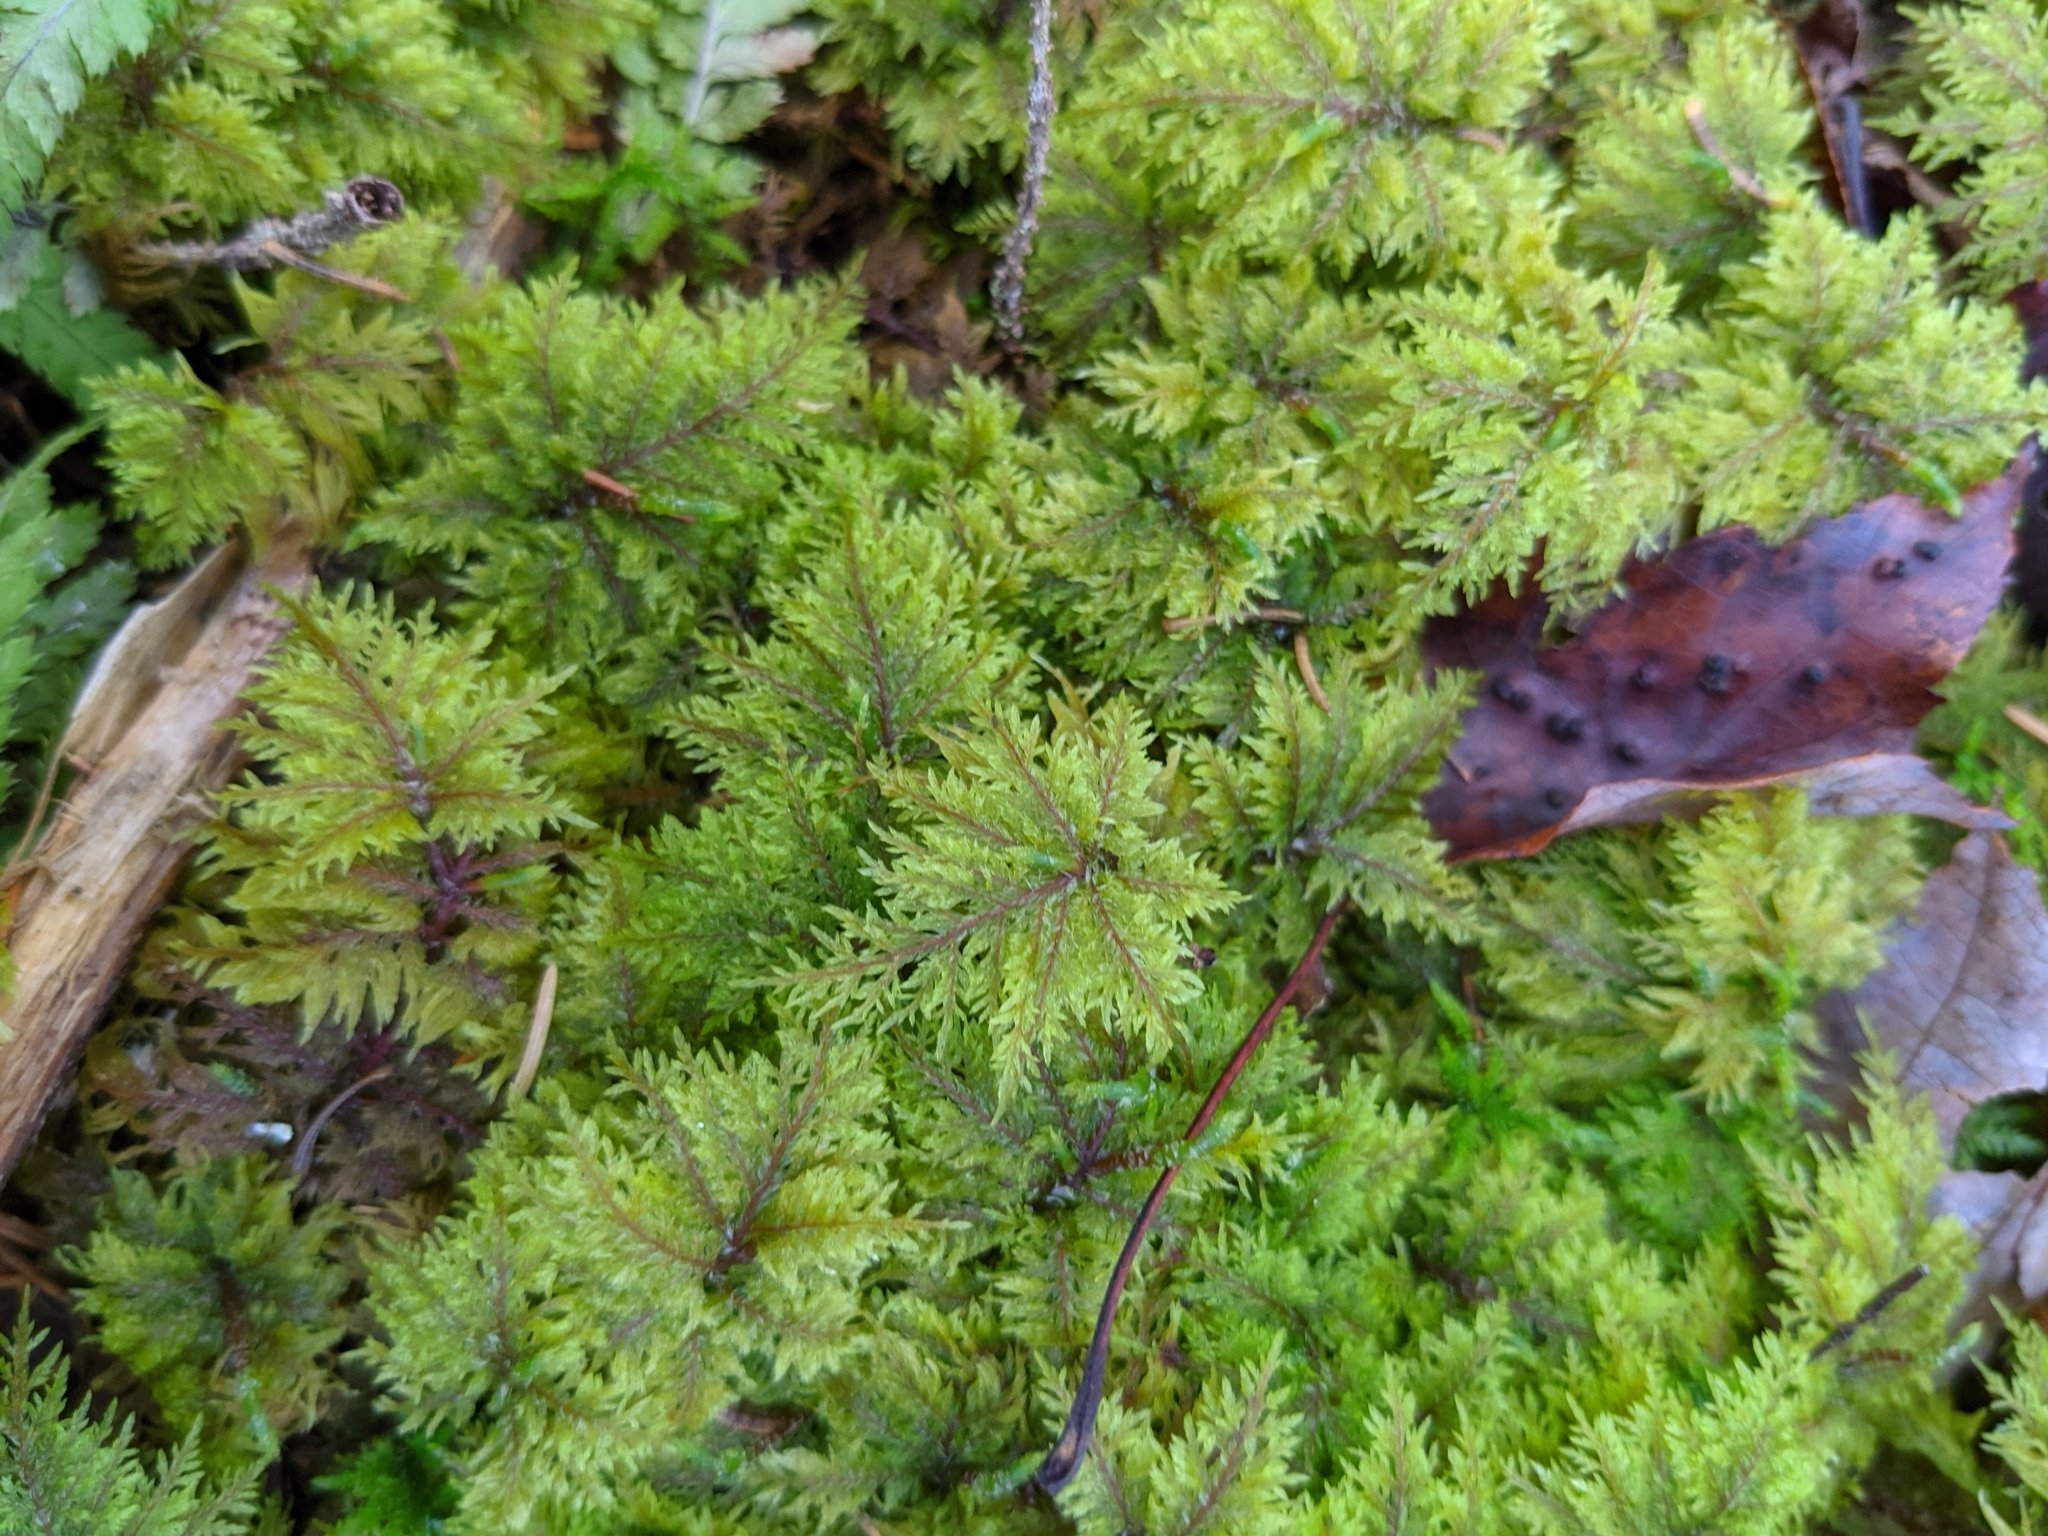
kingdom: Plantae
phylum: Bryophyta
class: Bryopsida
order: Hypnales
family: Hylocomiaceae
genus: Hylocomium
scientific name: Hylocomium splendens
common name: Stairstep moss
